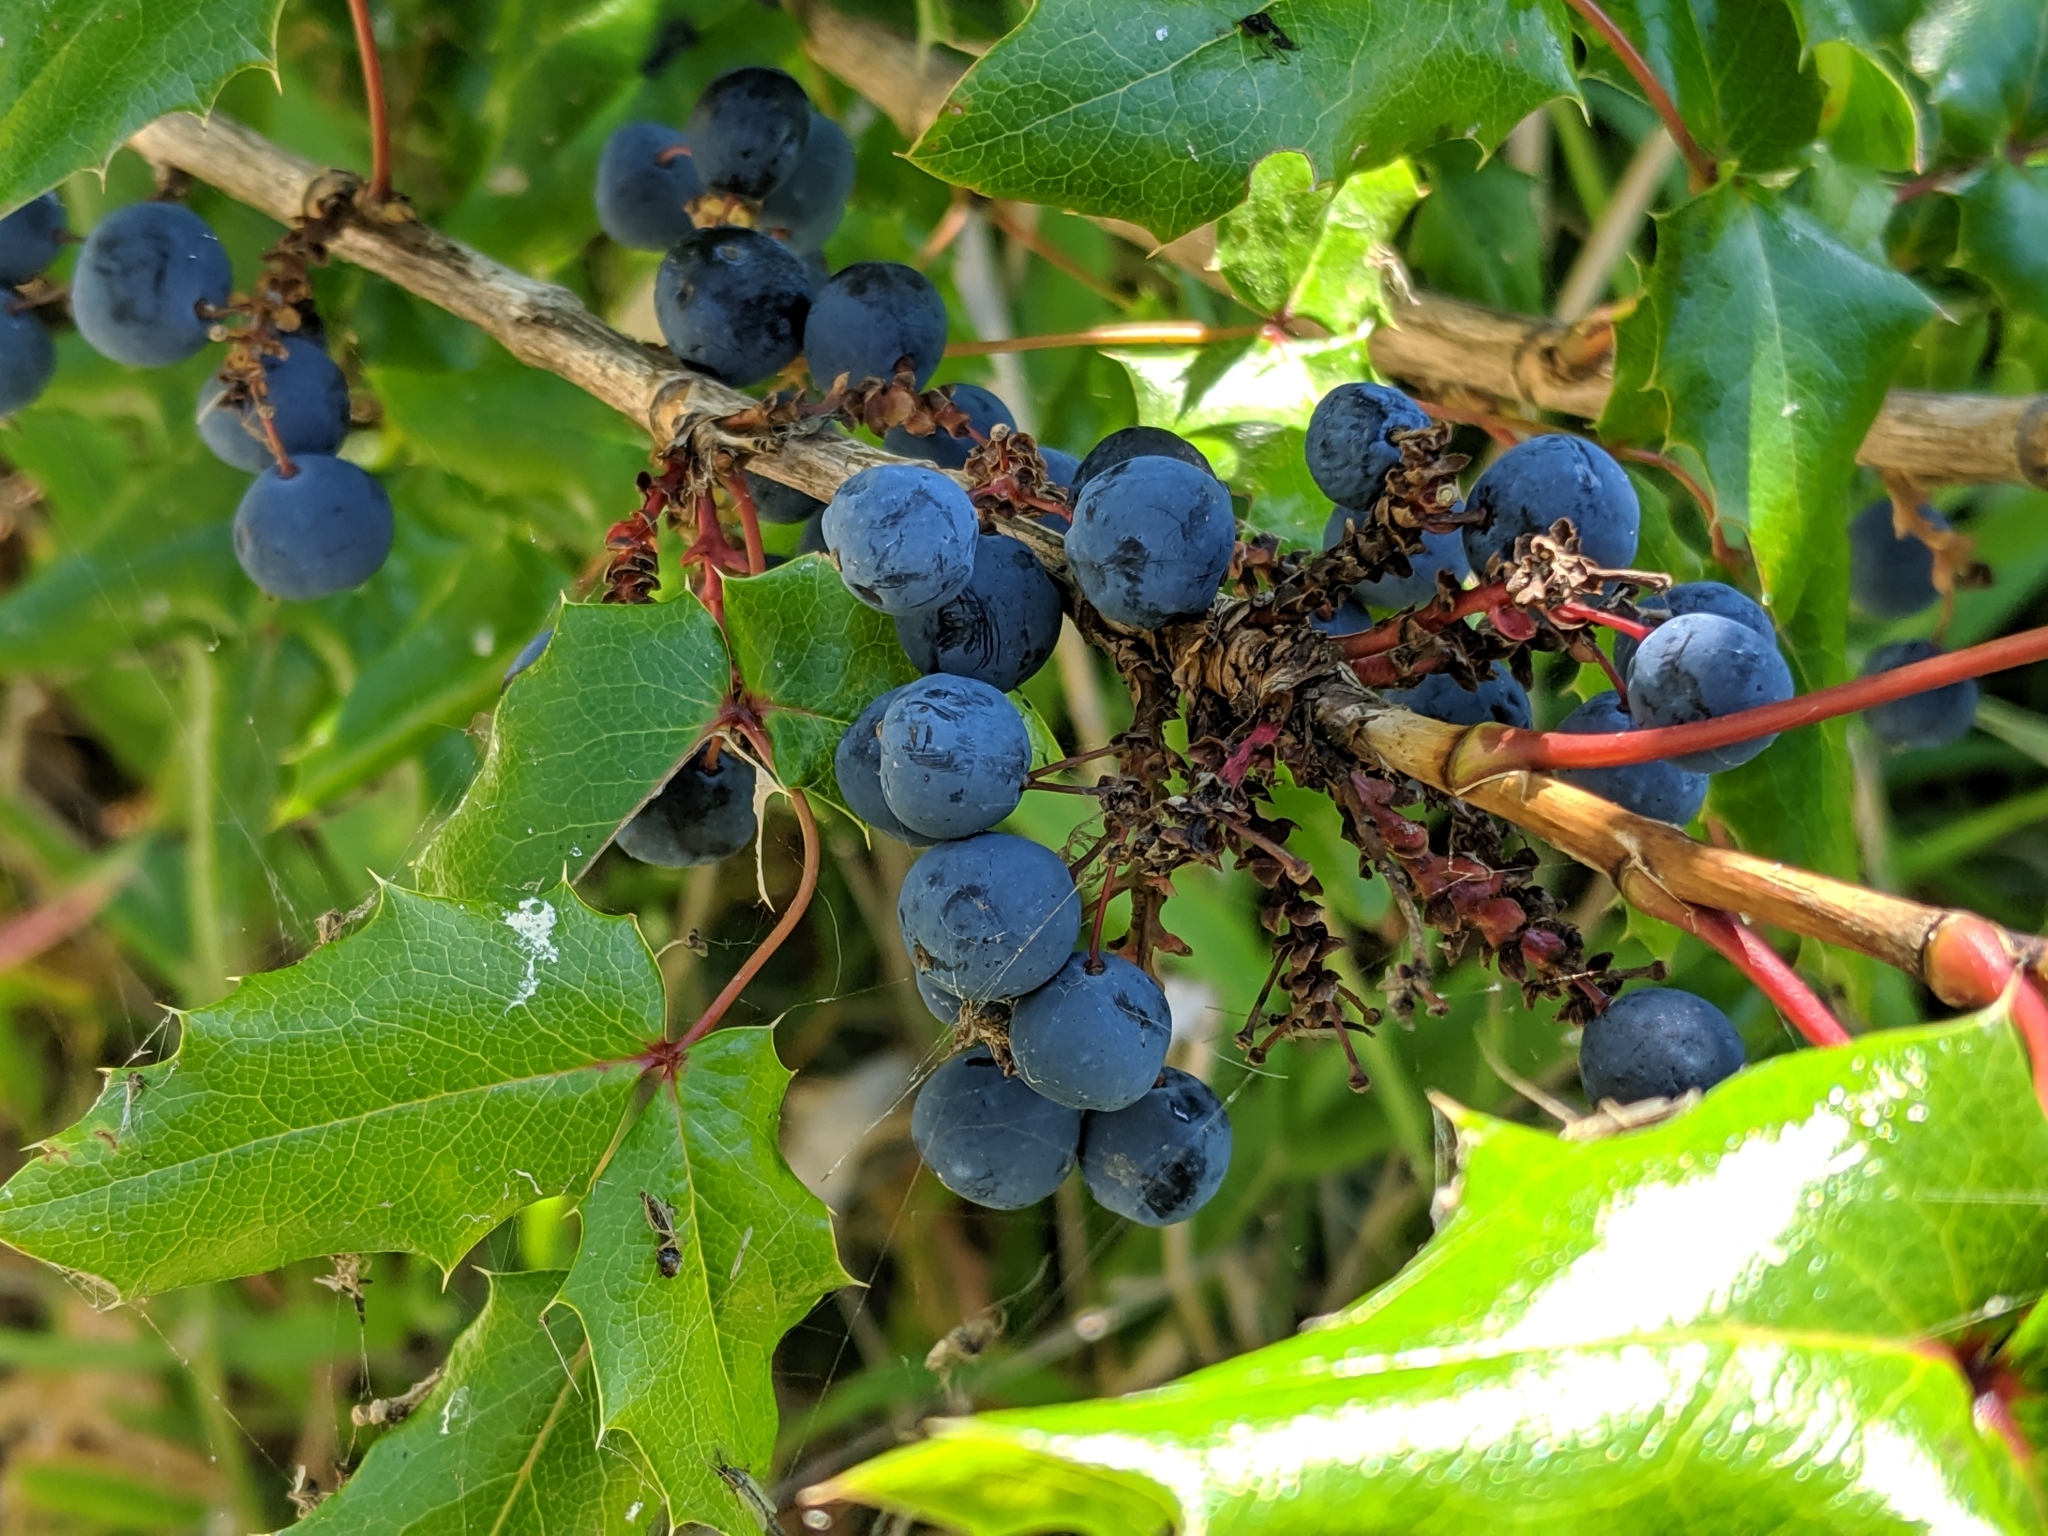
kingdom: Plantae
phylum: Tracheophyta
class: Magnoliopsida
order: Ranunculales
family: Berberidaceae
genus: Mahonia
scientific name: Mahonia aquifolium
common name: Oregon-grape
